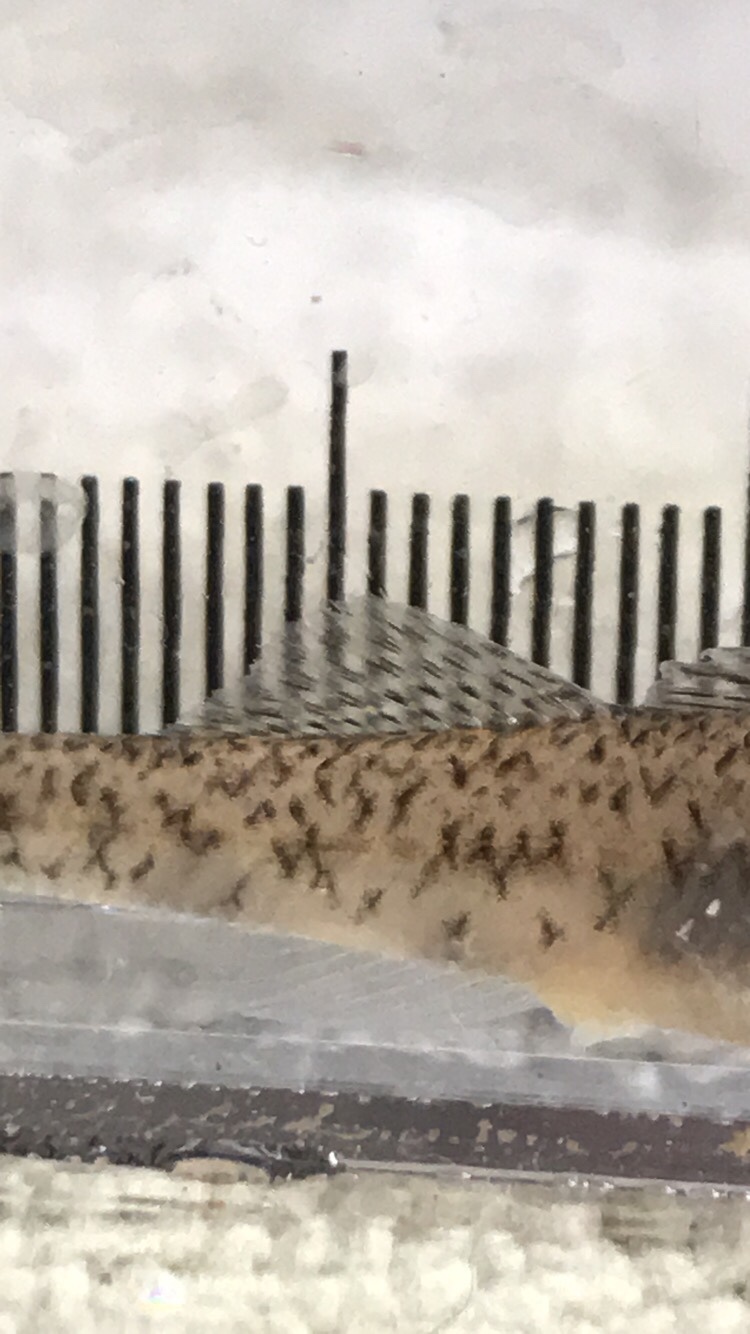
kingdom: Animalia
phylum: Chordata
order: Perciformes
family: Percidae
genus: Etheostoma
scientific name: Etheostoma nigrum
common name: Johnny darter
